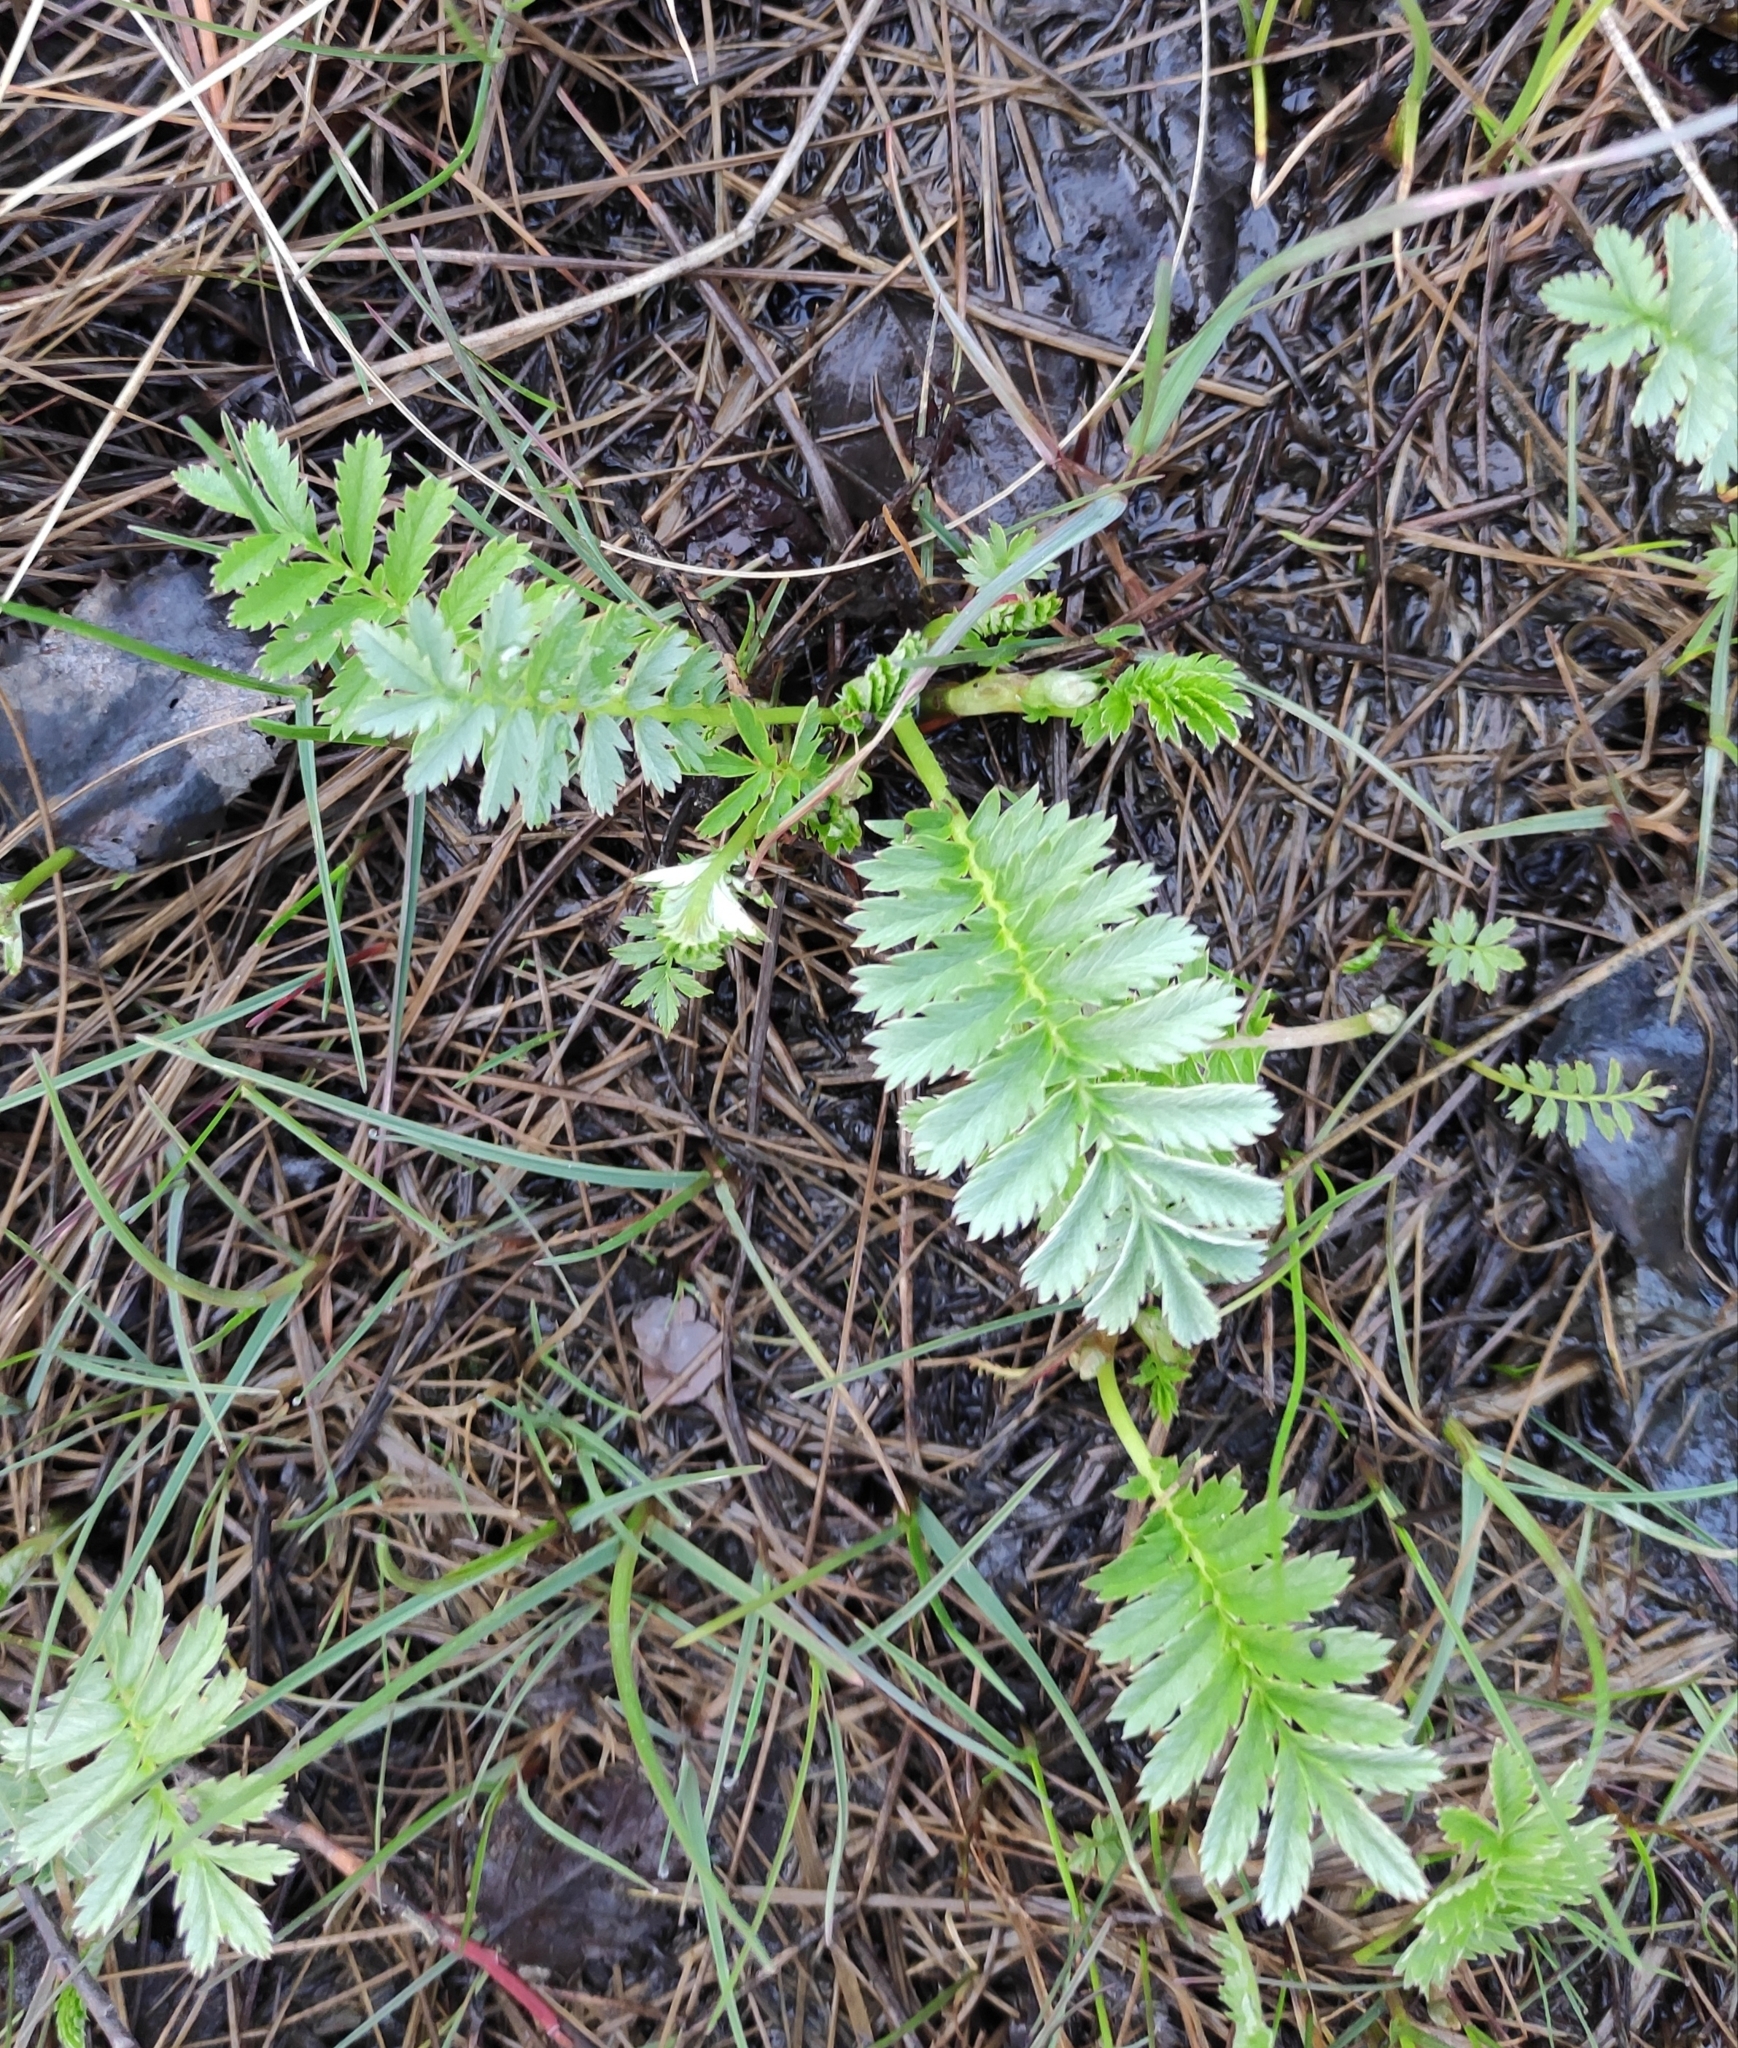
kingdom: Plantae
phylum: Tracheophyta
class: Magnoliopsida
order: Rosales
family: Rosaceae
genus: Argentina
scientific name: Argentina anserina
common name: Common silverweed
